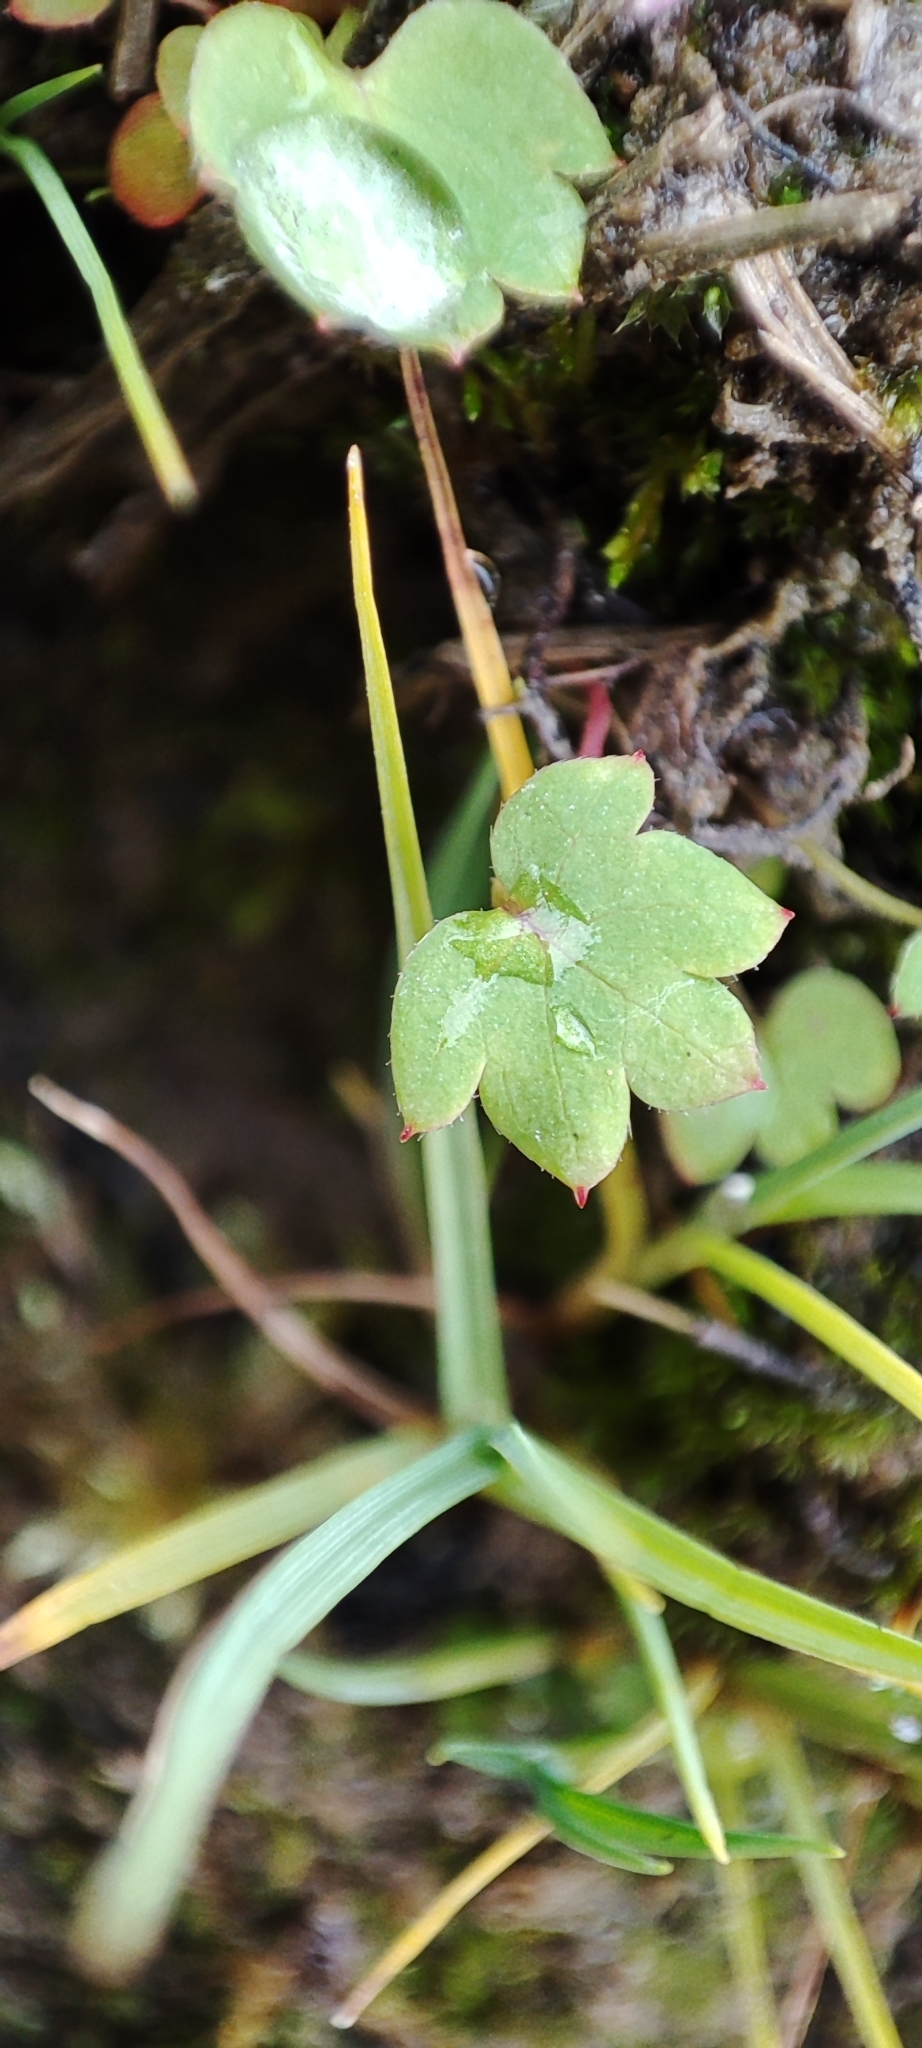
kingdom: Plantae
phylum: Tracheophyta
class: Magnoliopsida
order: Saxifragales
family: Saxifragaceae
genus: Saxifraga
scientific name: Saxifraga cernua
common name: Drooping saxifrage
